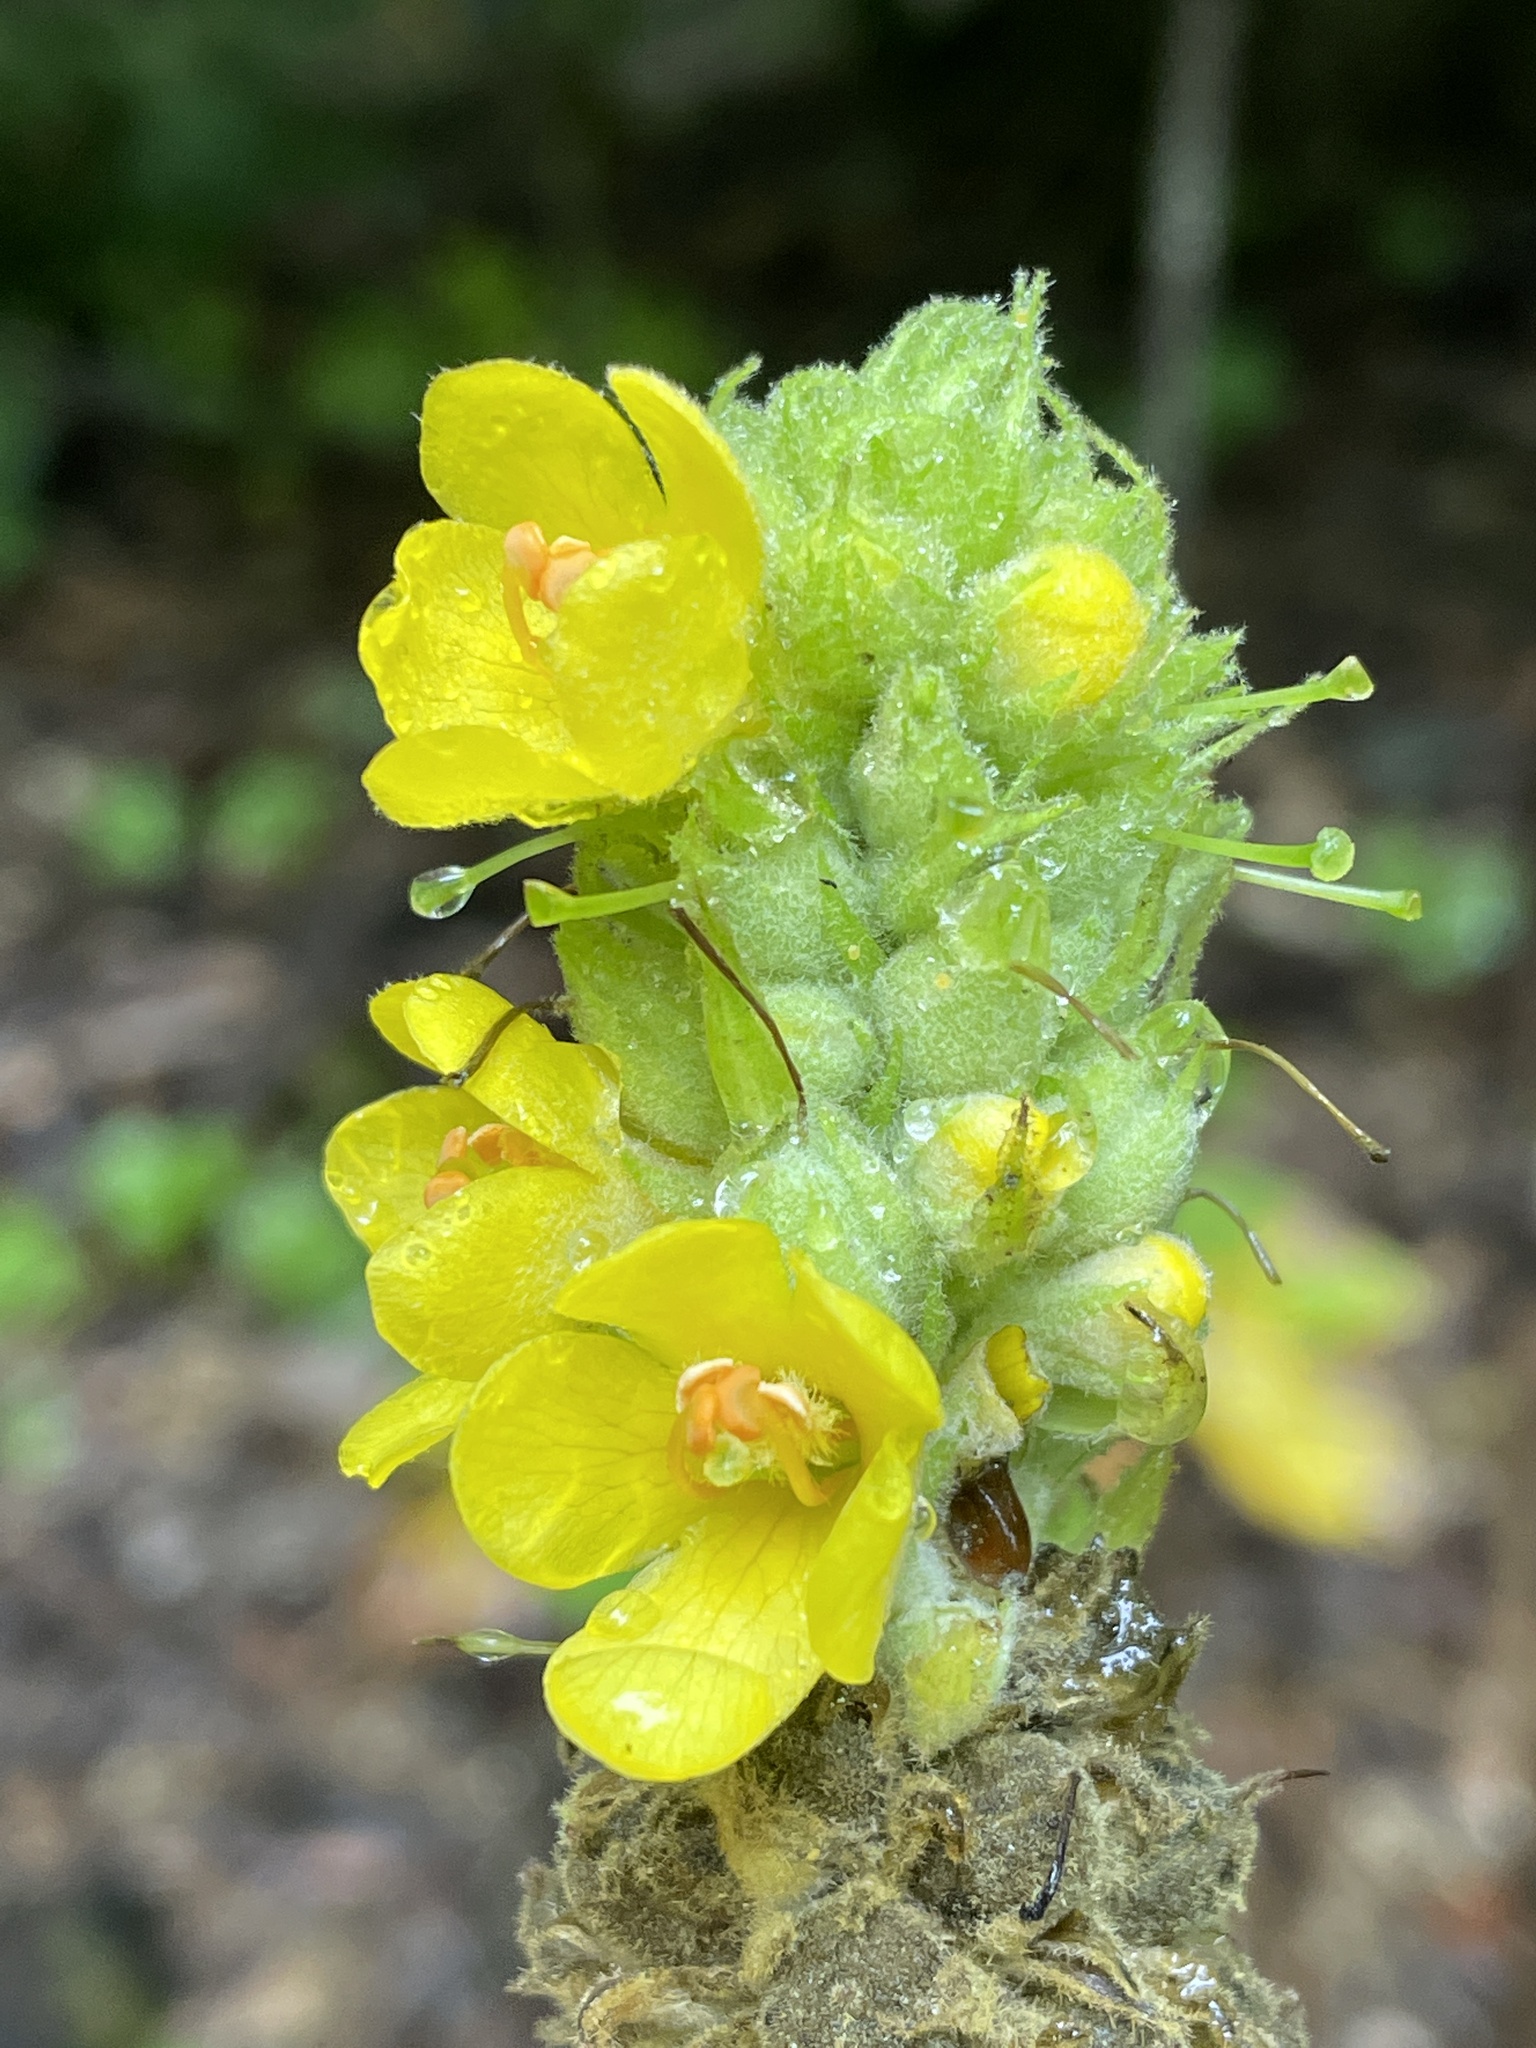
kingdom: Plantae
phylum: Tracheophyta
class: Magnoliopsida
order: Lamiales
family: Scrophulariaceae
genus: Verbascum
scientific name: Verbascum thapsus
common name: Common mullein
